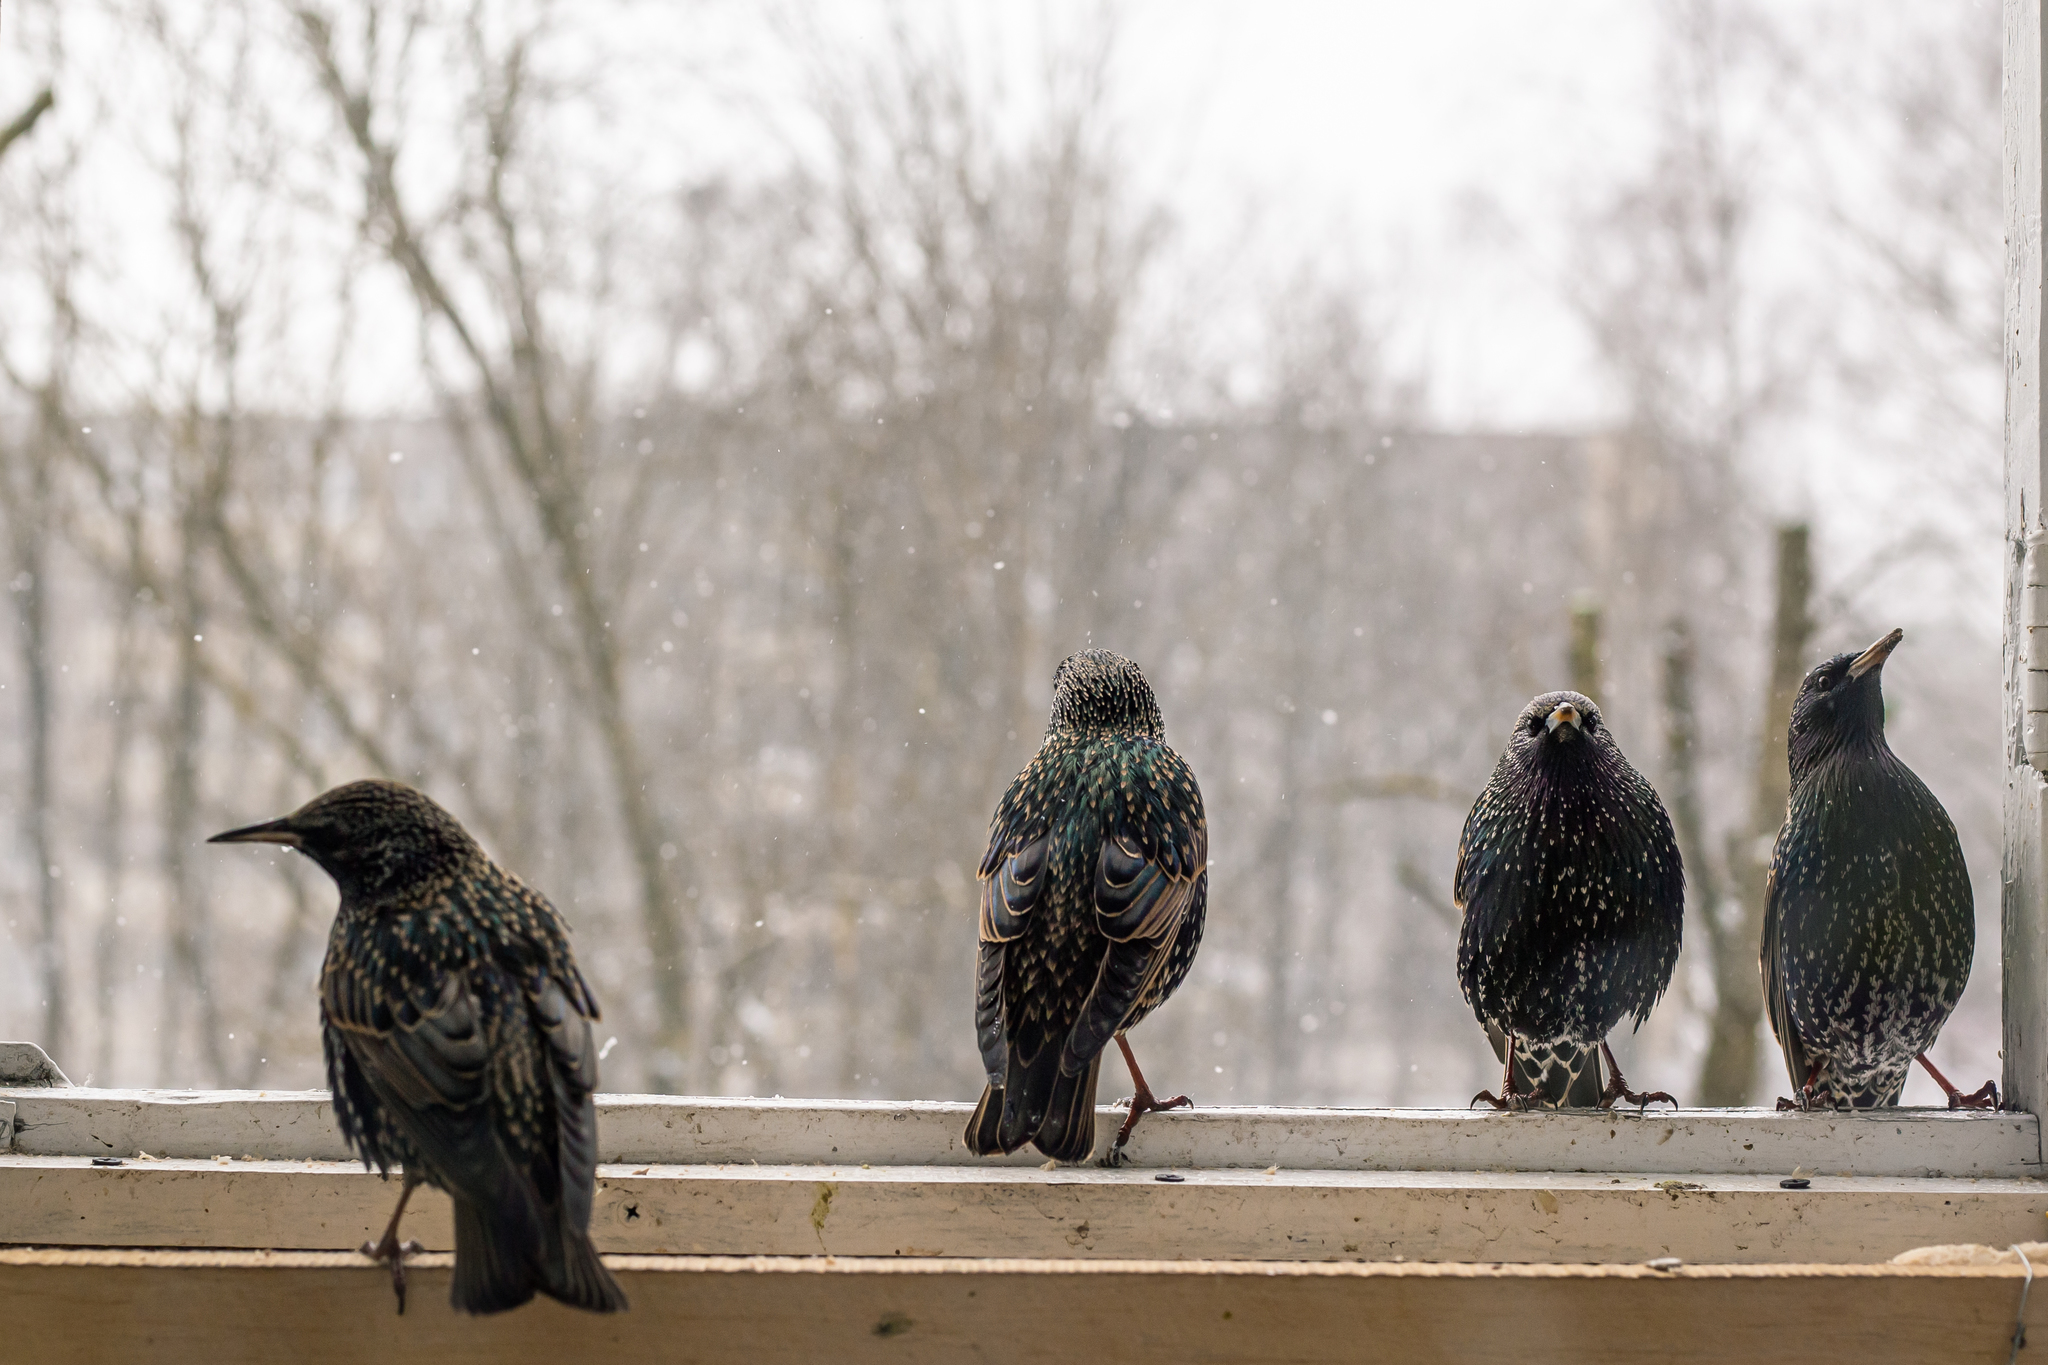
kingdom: Animalia
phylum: Chordata
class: Aves
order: Passeriformes
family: Sturnidae
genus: Sturnus
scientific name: Sturnus vulgaris
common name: Common starling
